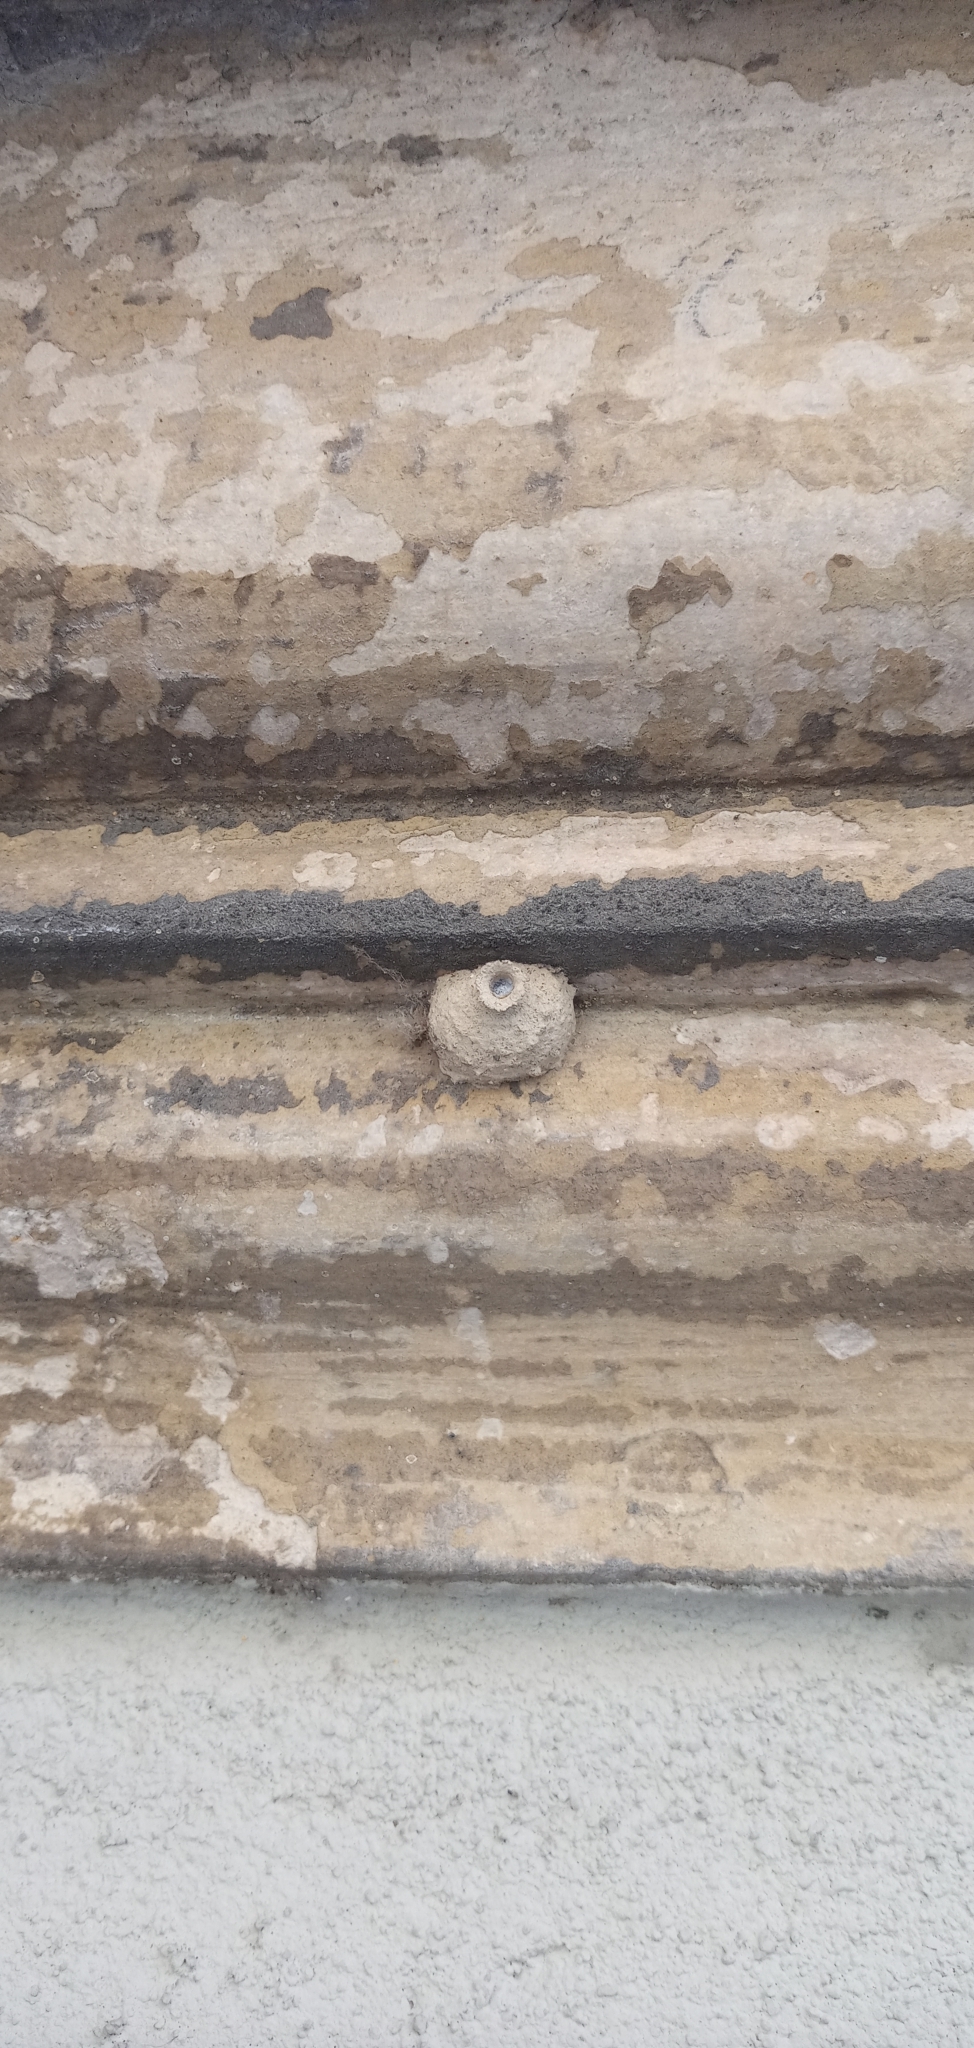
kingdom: Animalia
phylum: Arthropoda
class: Insecta
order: Hymenoptera
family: Eumenidae
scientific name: Eumenidae
